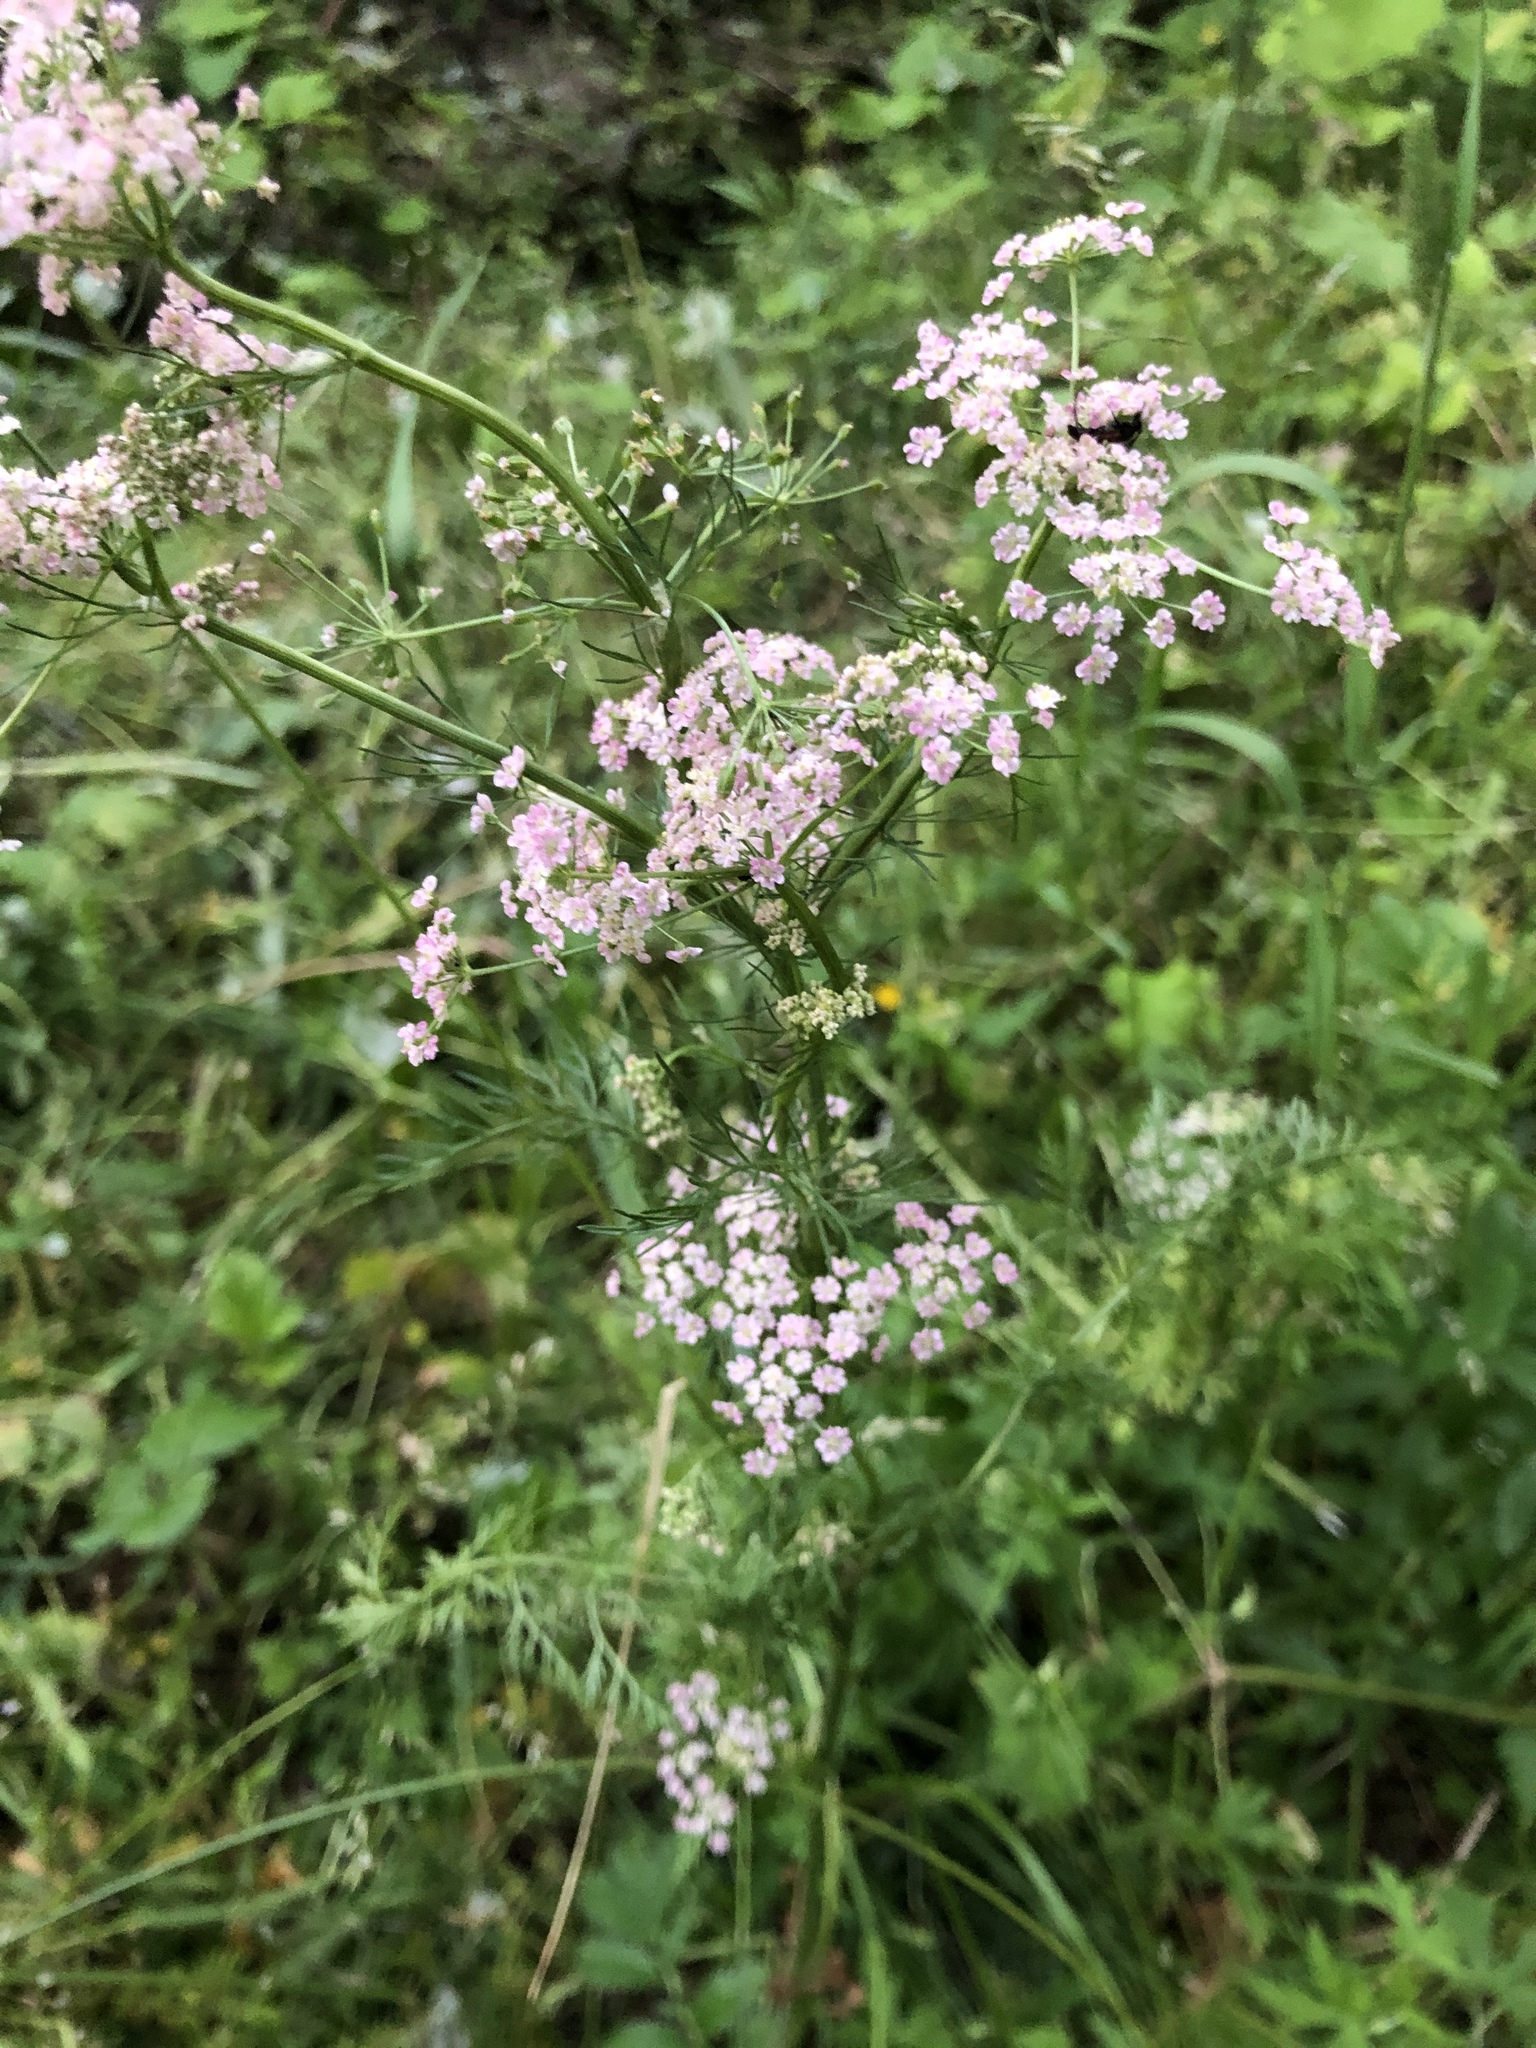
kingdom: Plantae
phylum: Tracheophyta
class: Magnoliopsida
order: Apiales
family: Apiaceae
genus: Carum
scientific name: Carum carvi
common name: Caraway
